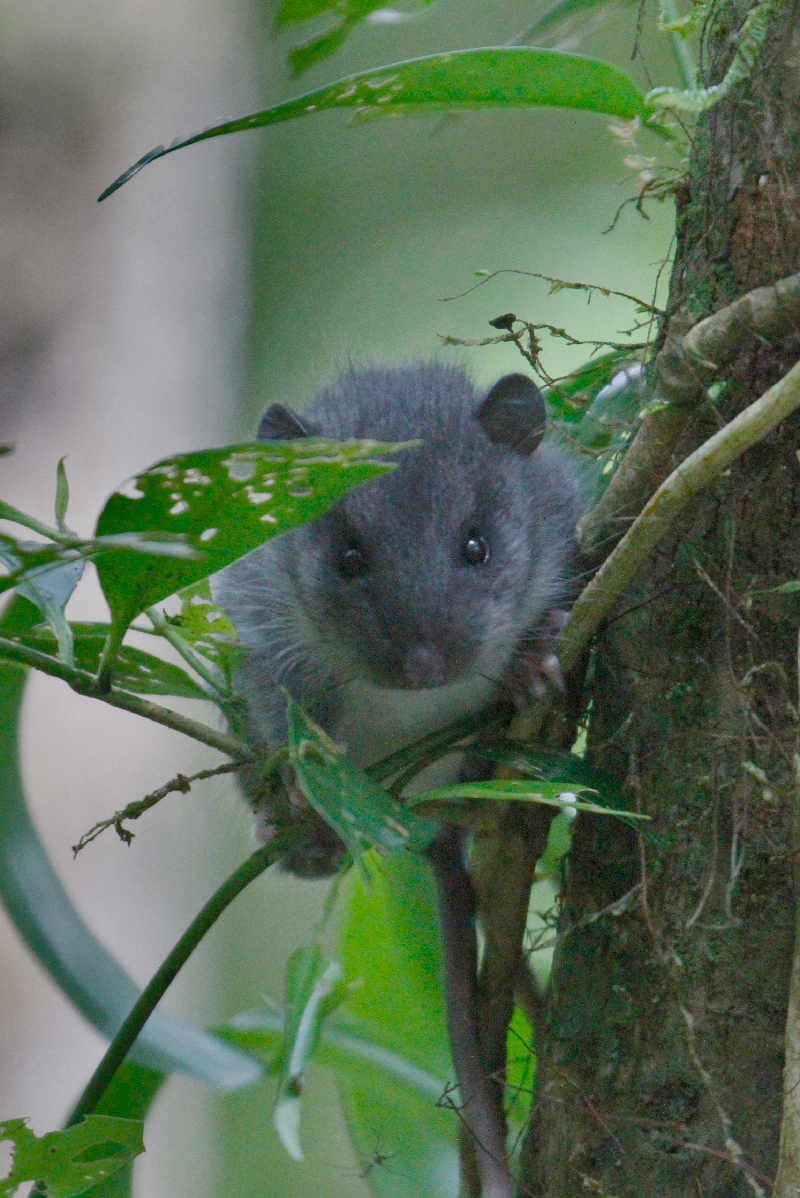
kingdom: Animalia
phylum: Chordata
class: Mammalia
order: Rodentia
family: Cricetidae
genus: Tylomys
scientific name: Tylomys watsoni
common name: Watson's climbing rat
